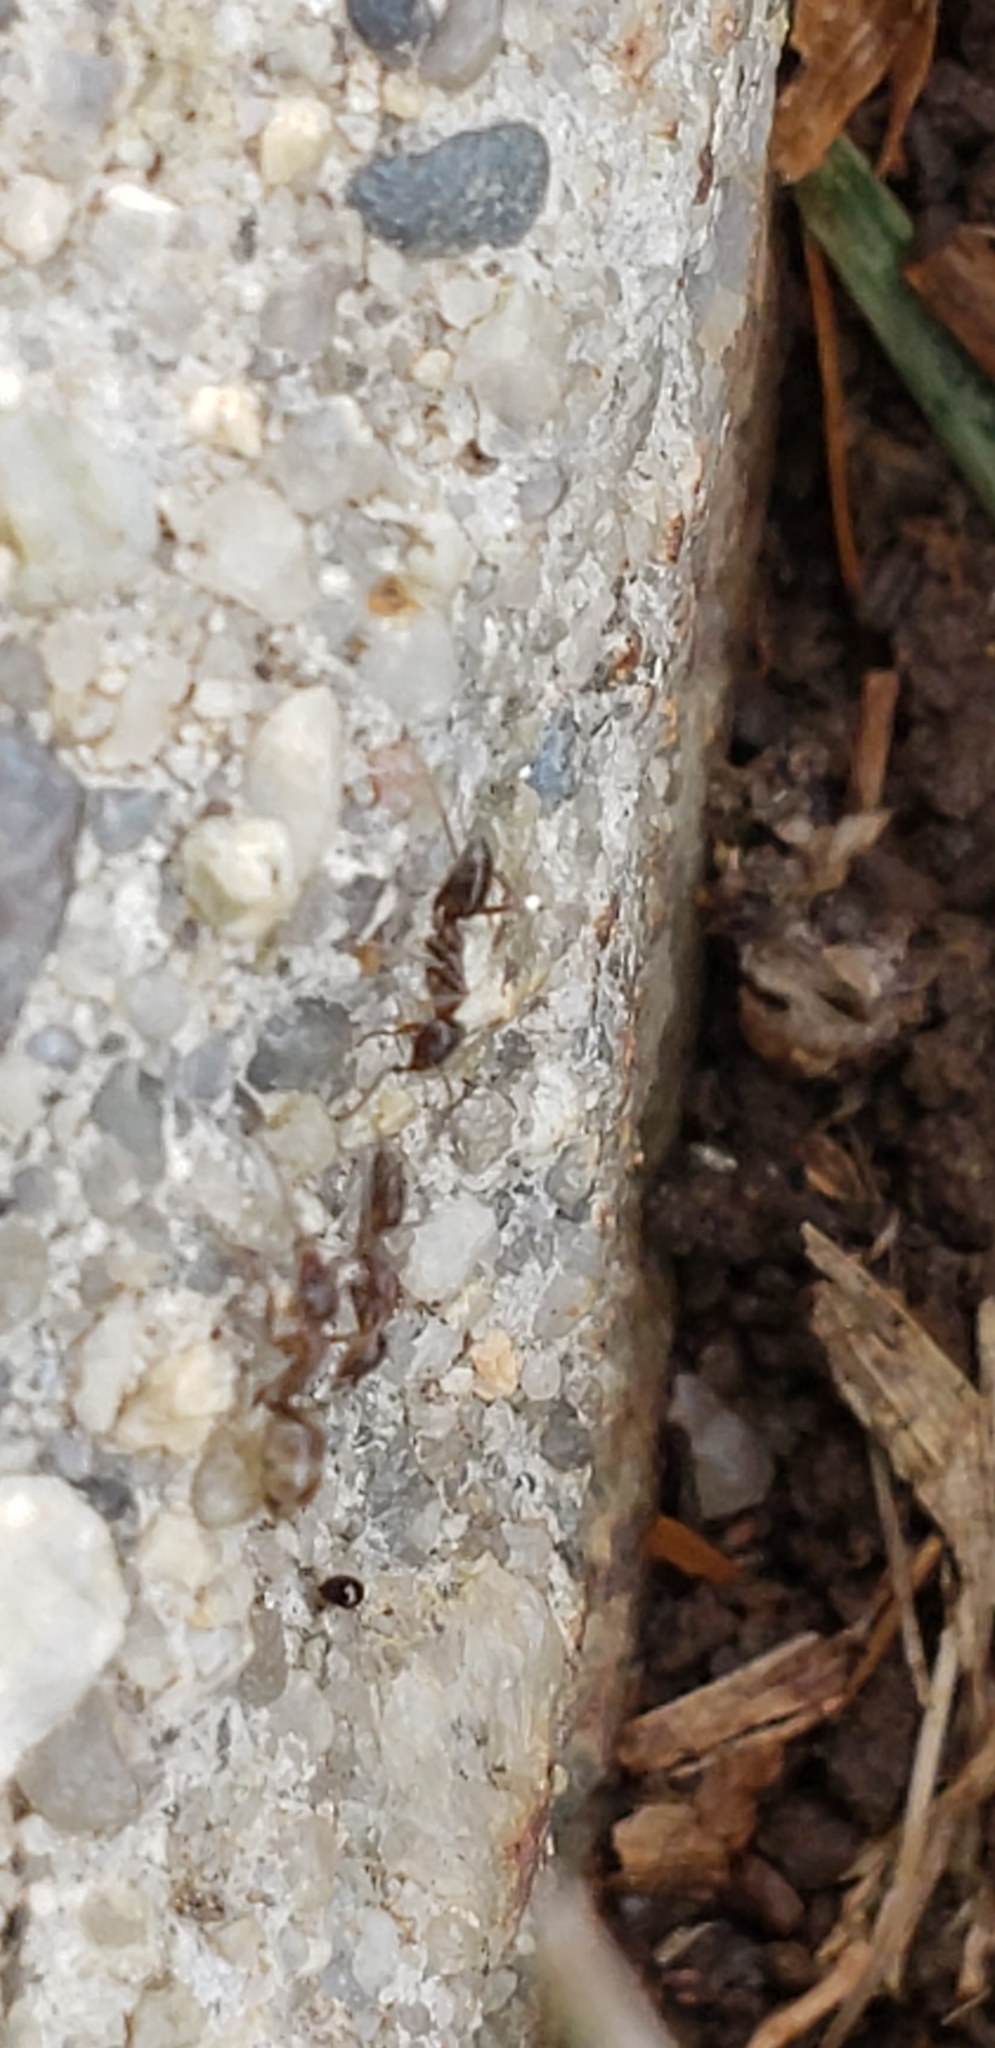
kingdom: Animalia
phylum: Arthropoda
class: Insecta
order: Hymenoptera
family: Formicidae
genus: Linepithema
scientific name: Linepithema humile
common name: Argentine ant
